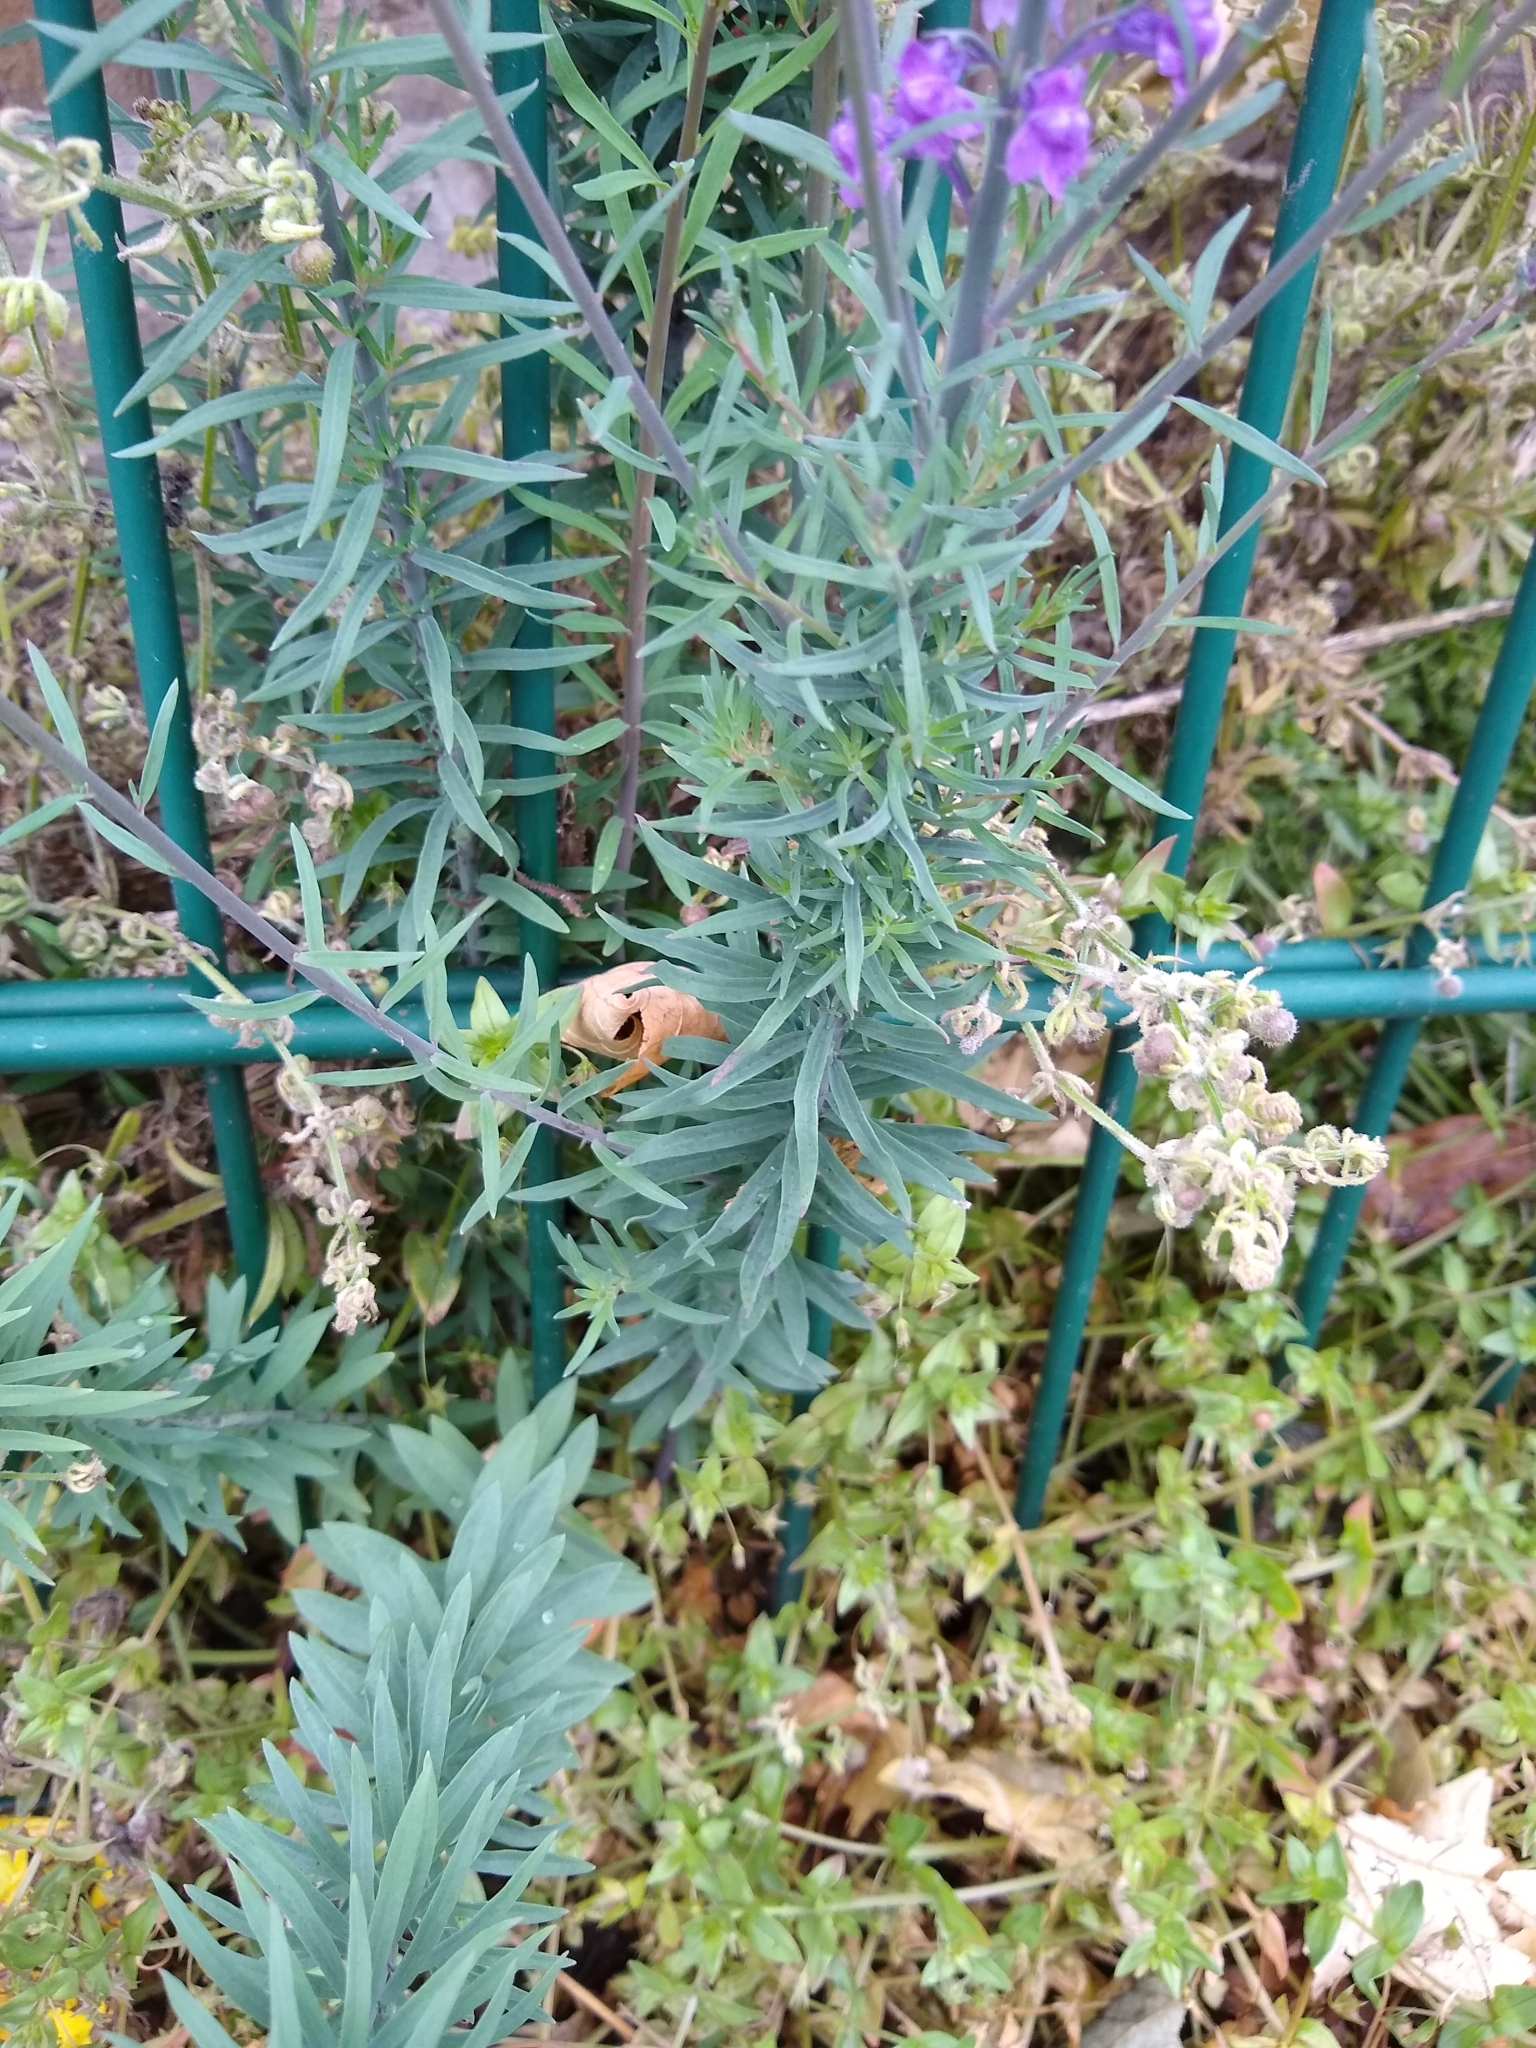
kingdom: Plantae
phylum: Tracheophyta
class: Magnoliopsida
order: Lamiales
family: Plantaginaceae
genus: Linaria
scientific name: Linaria purpurea
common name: Purple toadflax
